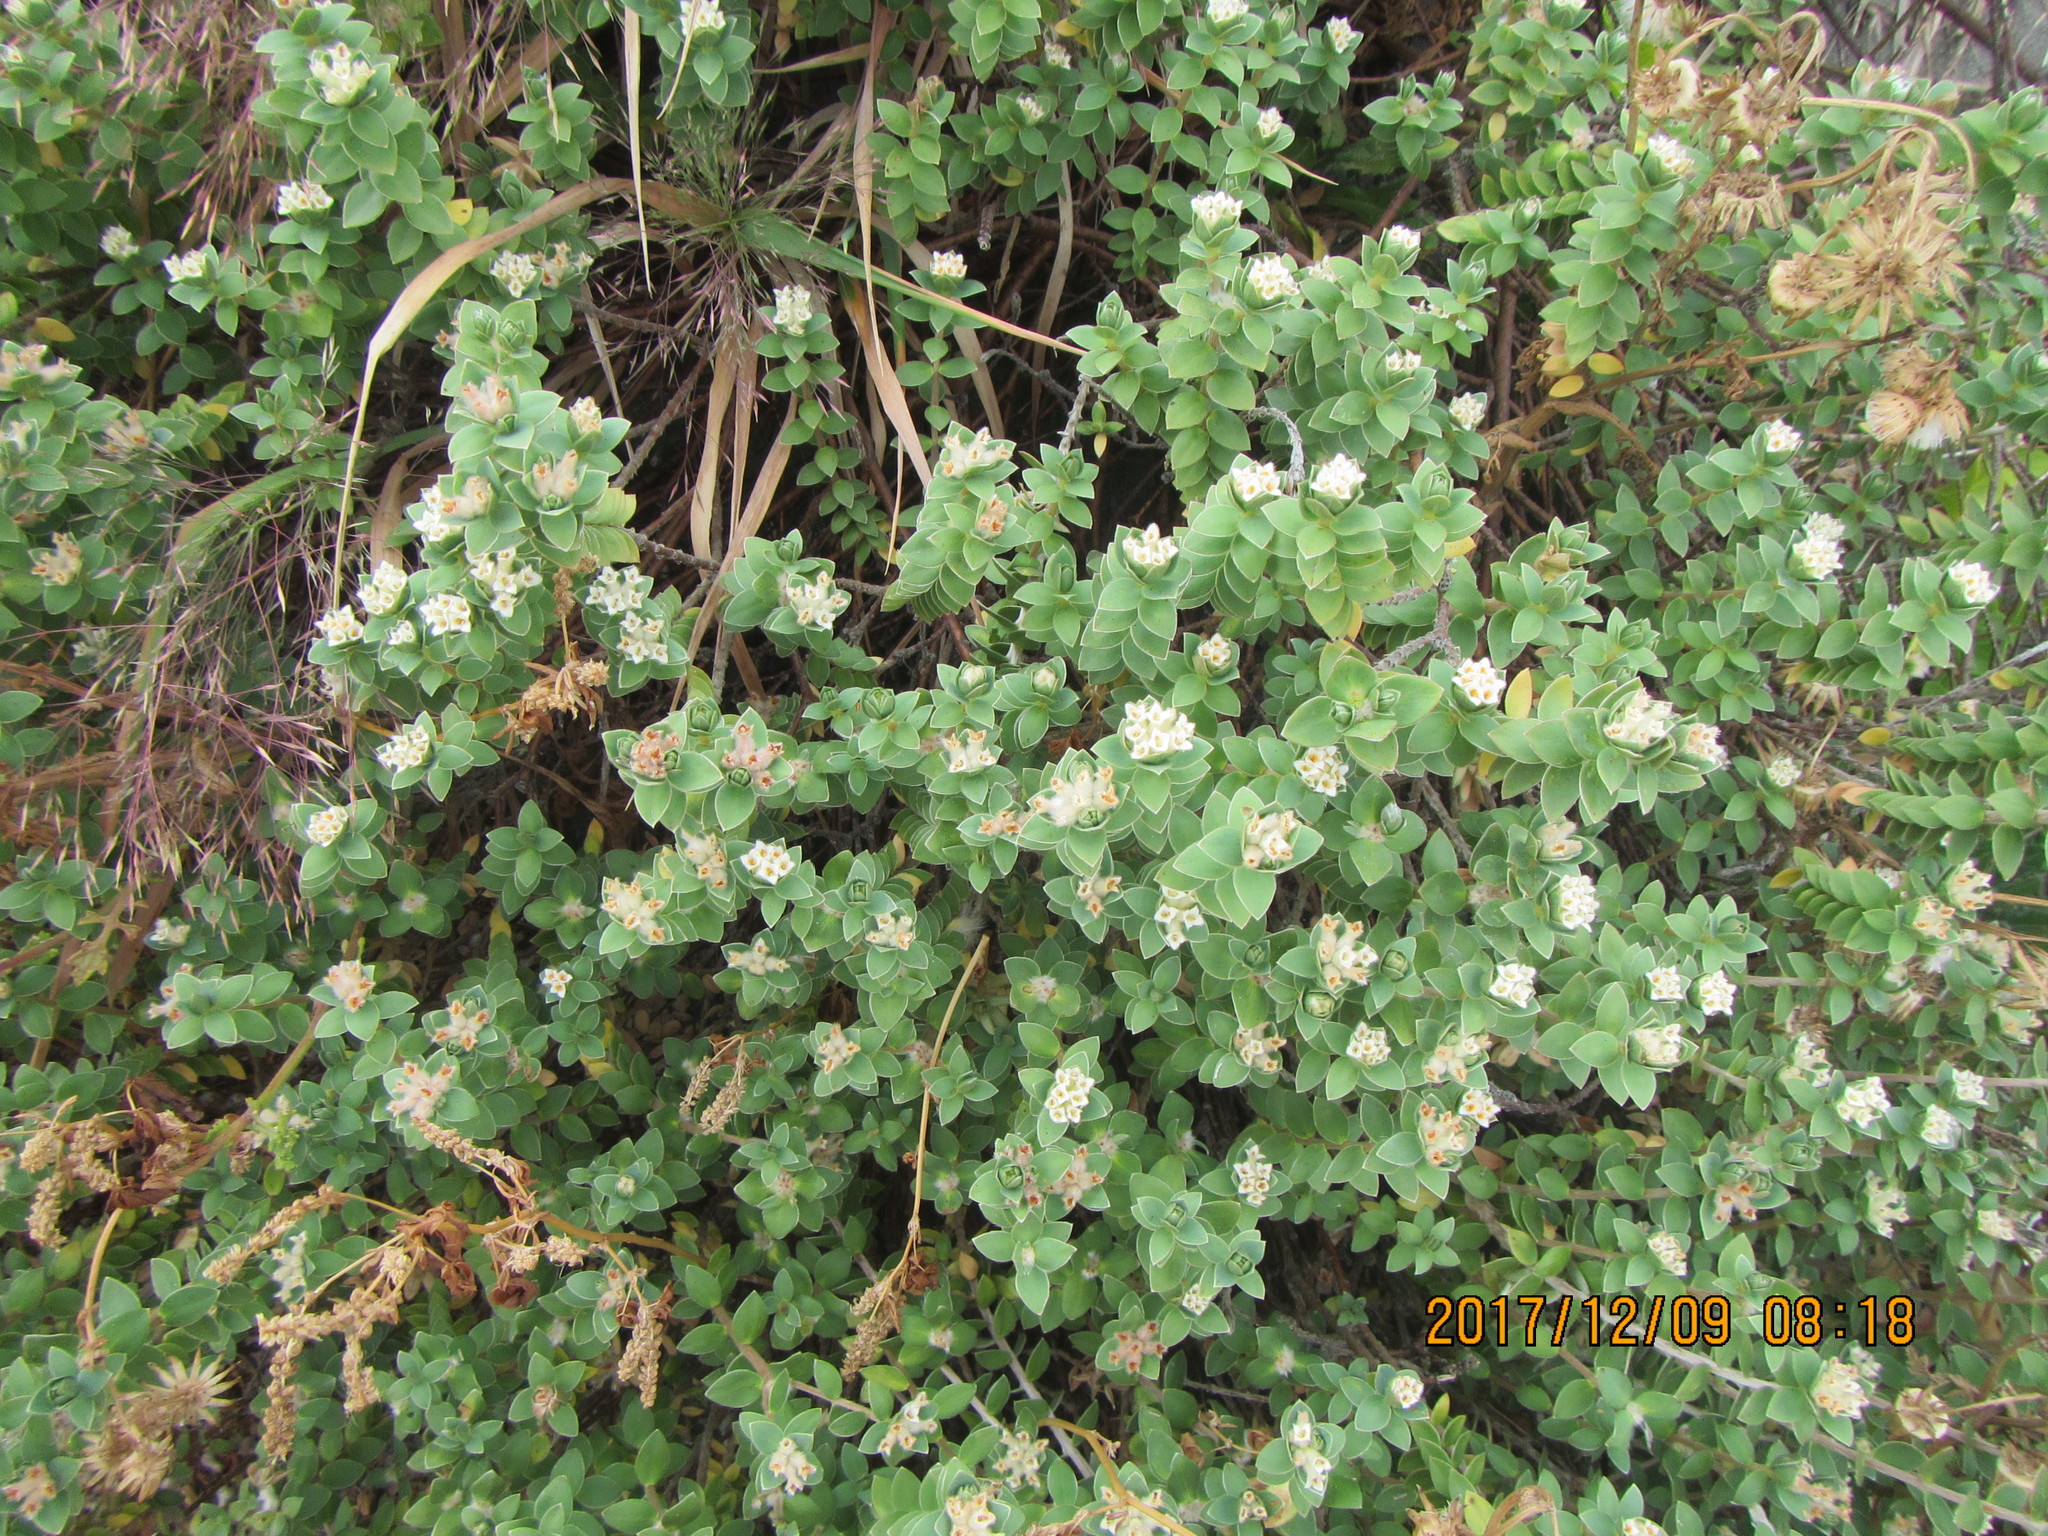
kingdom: Plantae
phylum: Tracheophyta
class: Magnoliopsida
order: Malvales
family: Thymelaeaceae
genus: Pimelea
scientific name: Pimelea villosa
